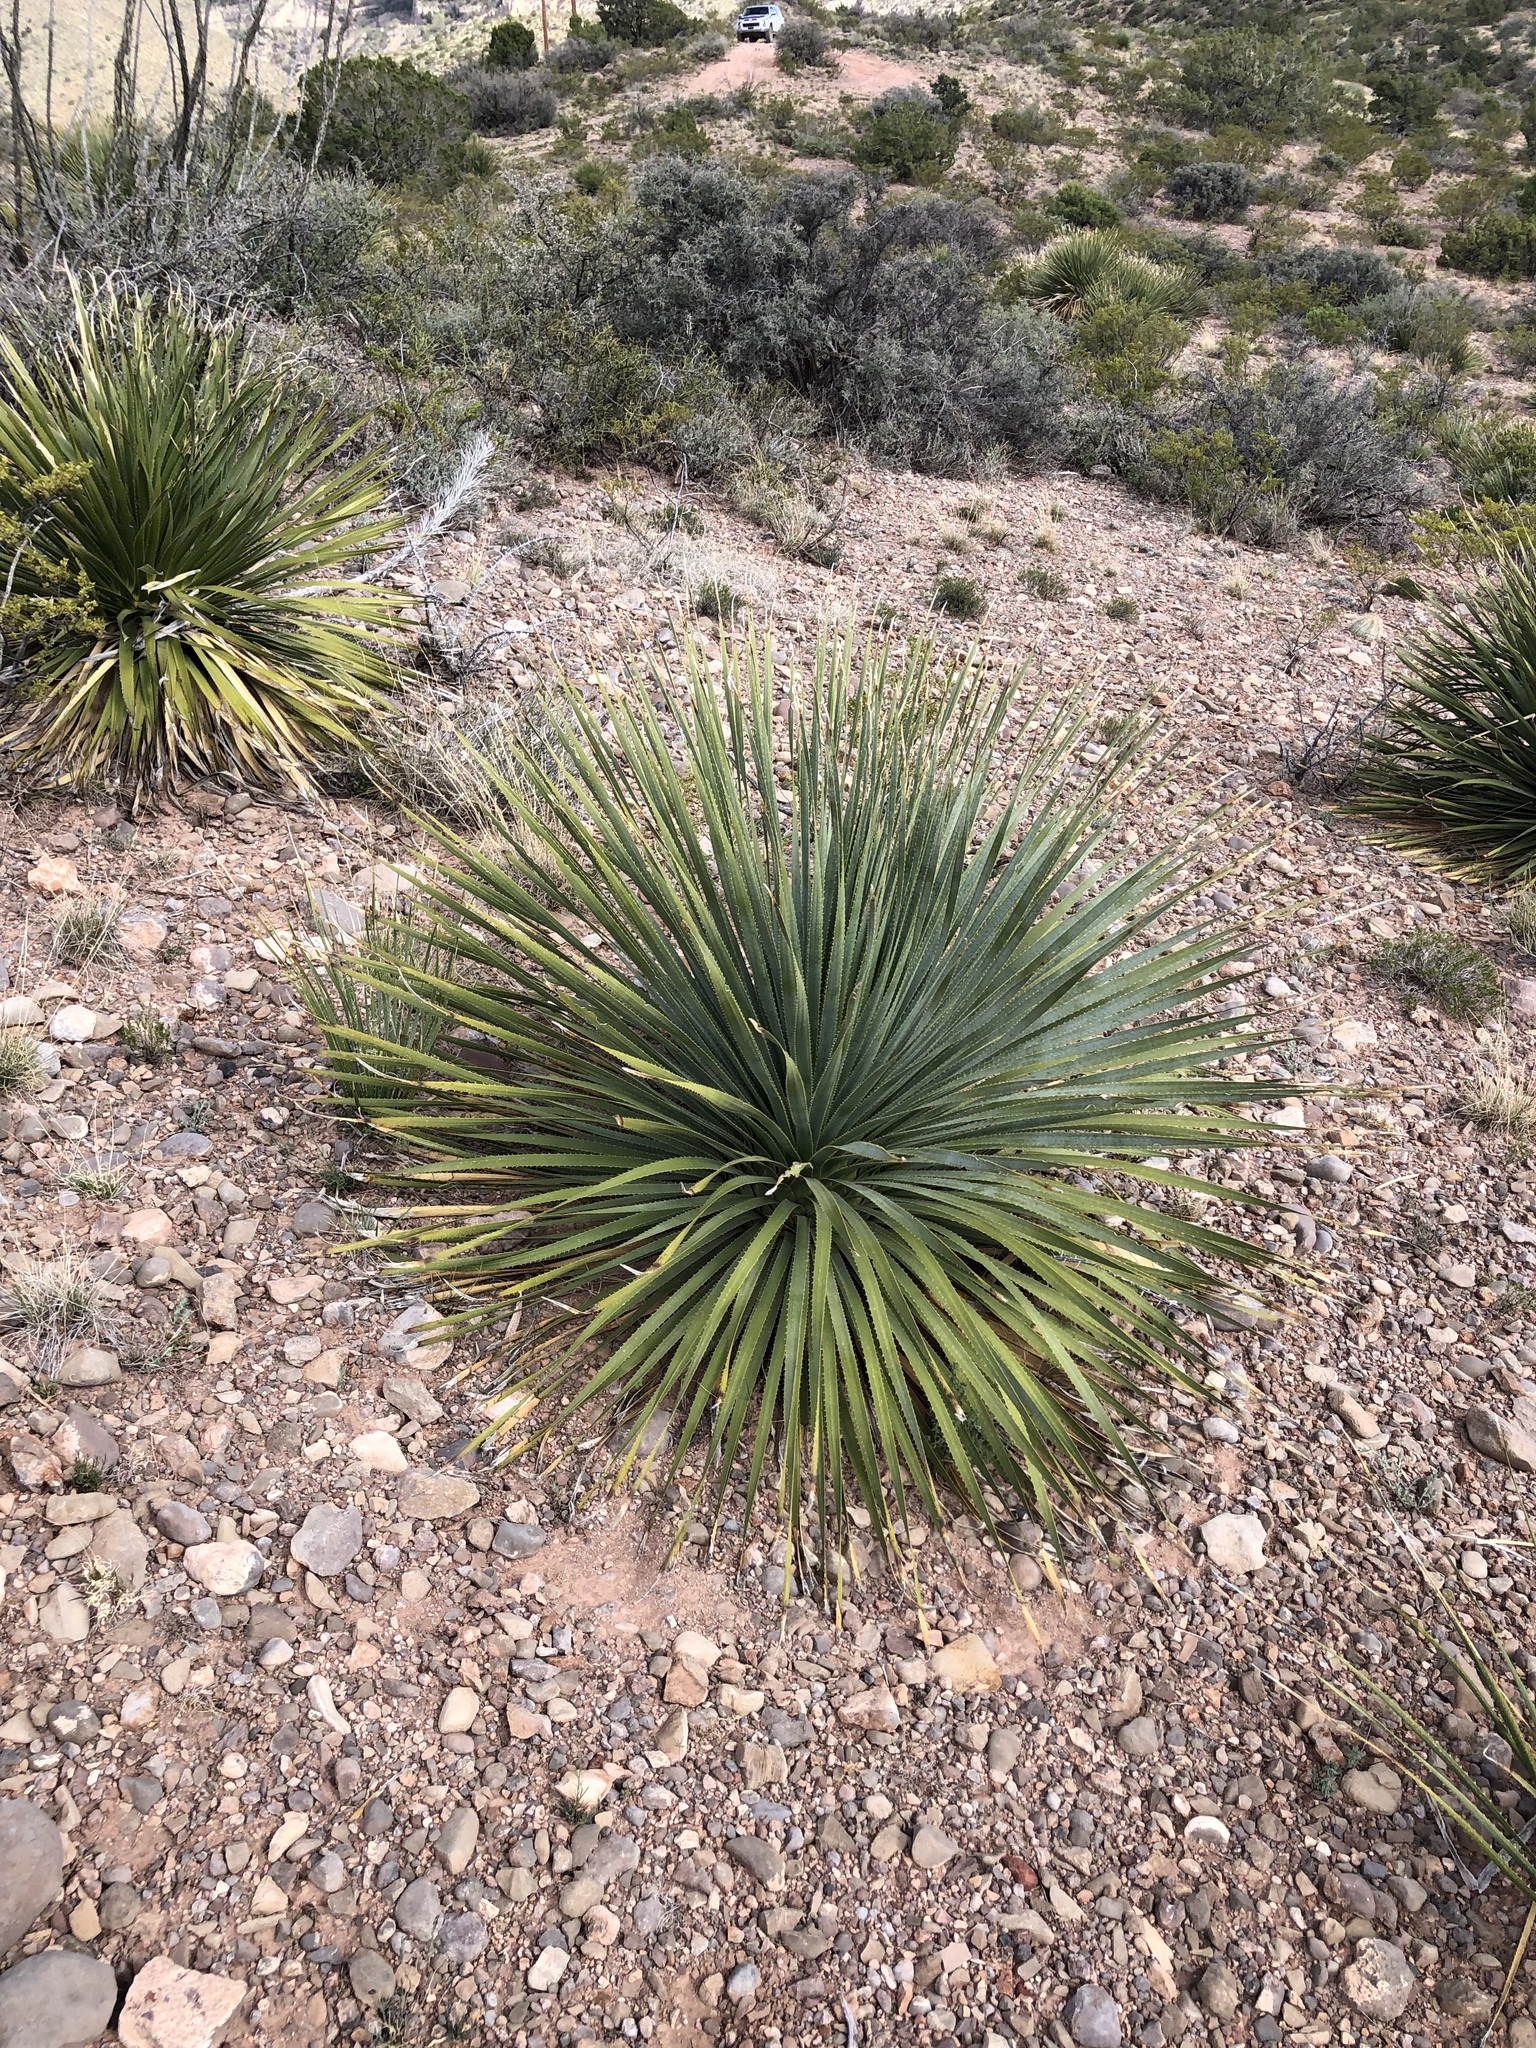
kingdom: Plantae
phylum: Tracheophyta
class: Liliopsida
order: Asparagales
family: Asparagaceae
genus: Dasylirion
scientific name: Dasylirion wheeleri
